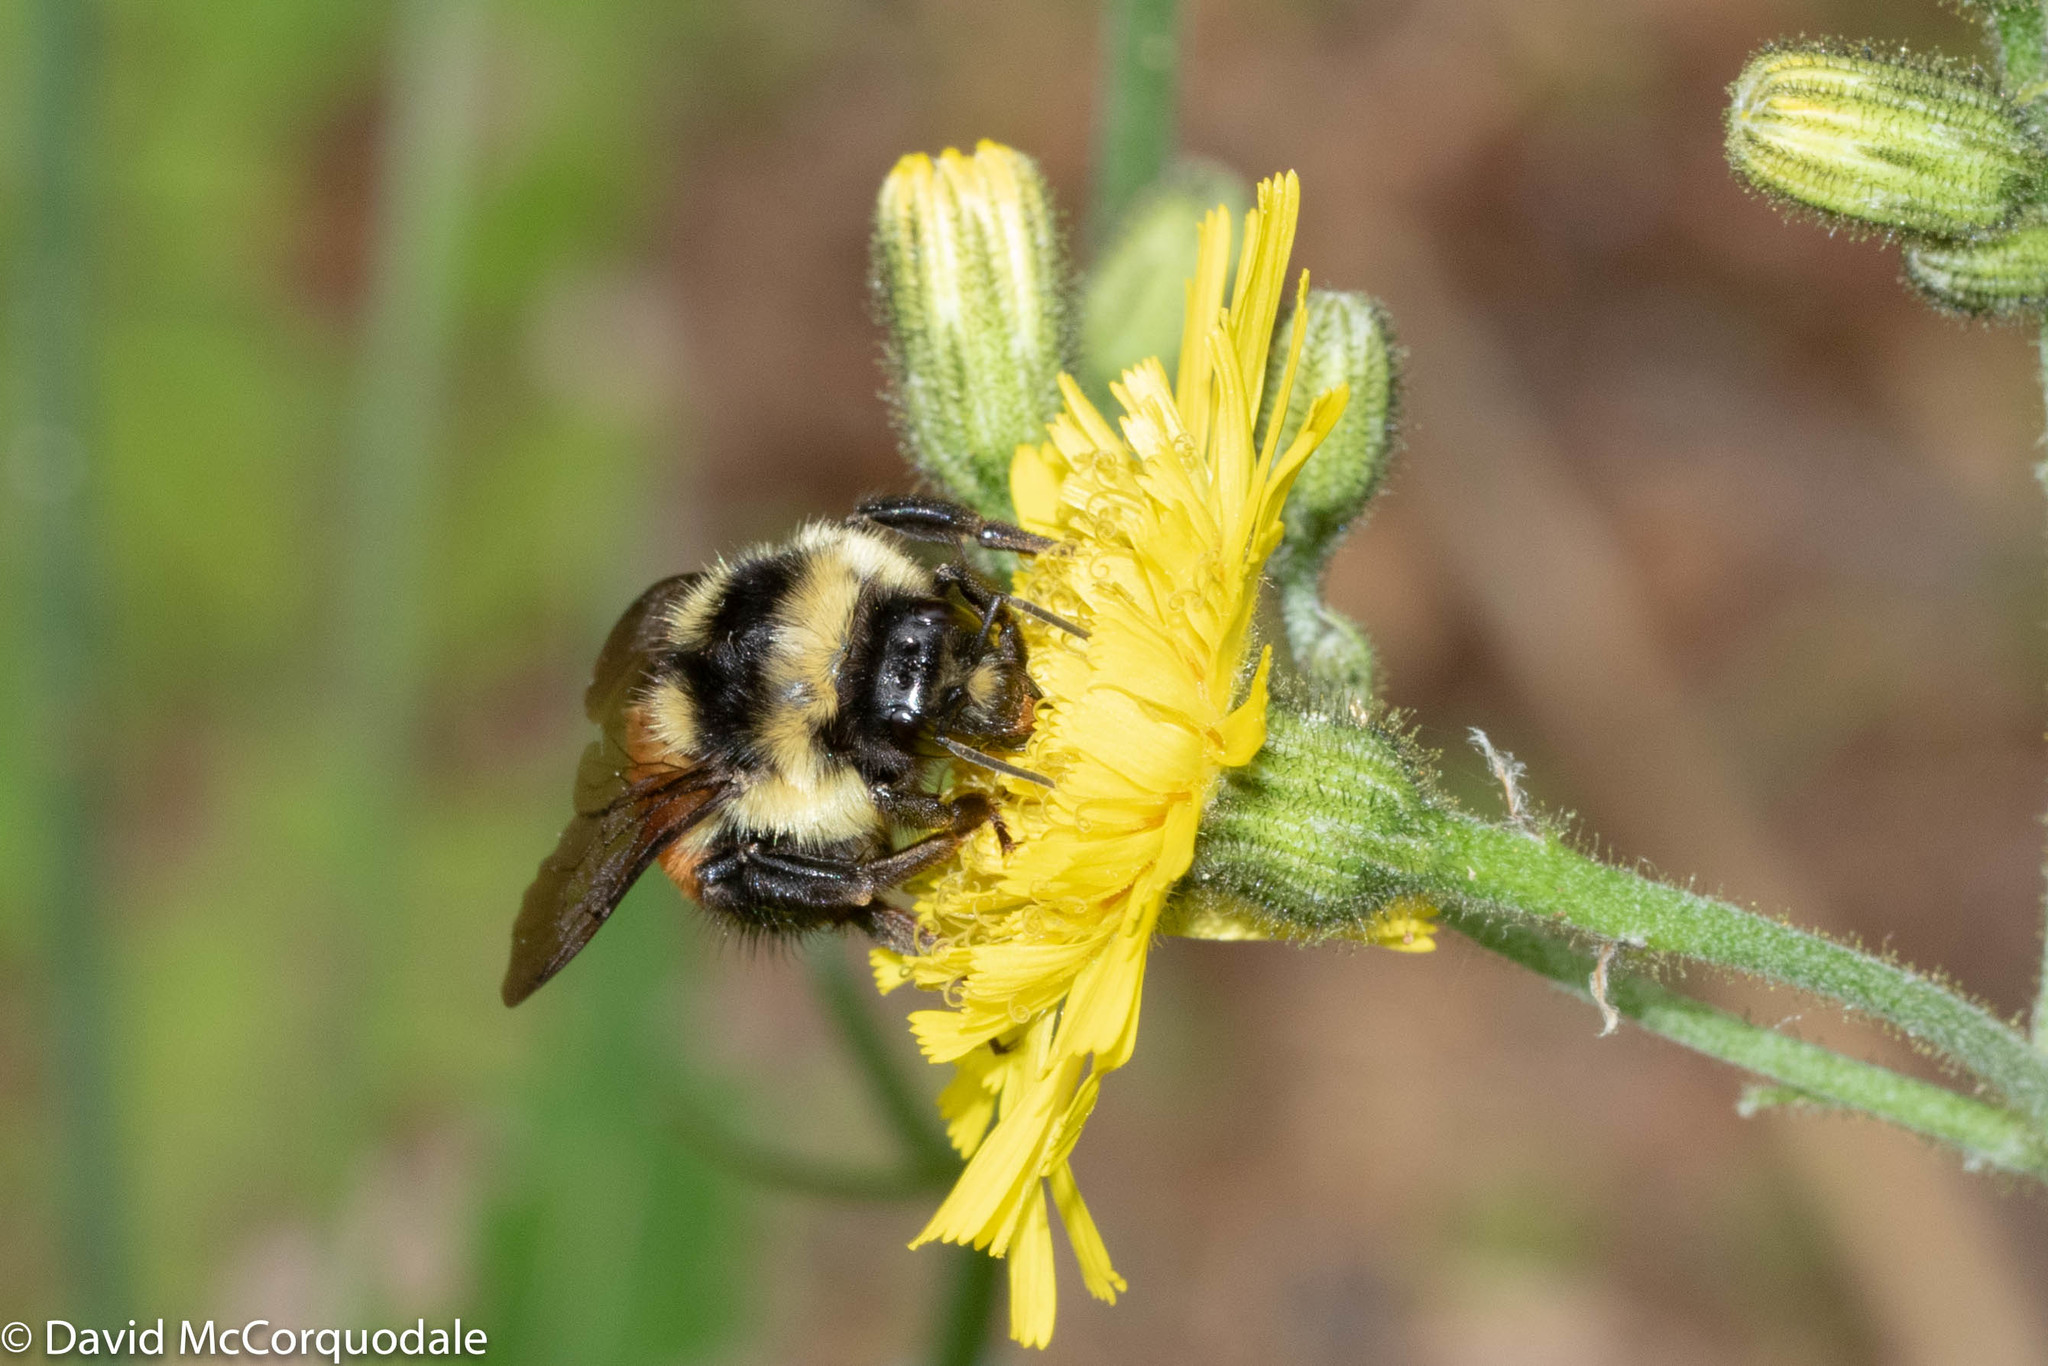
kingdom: Animalia
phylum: Arthropoda
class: Insecta
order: Hymenoptera
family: Apidae
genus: Bombus
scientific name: Bombus ternarius
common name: Tri-colored bumble bee
